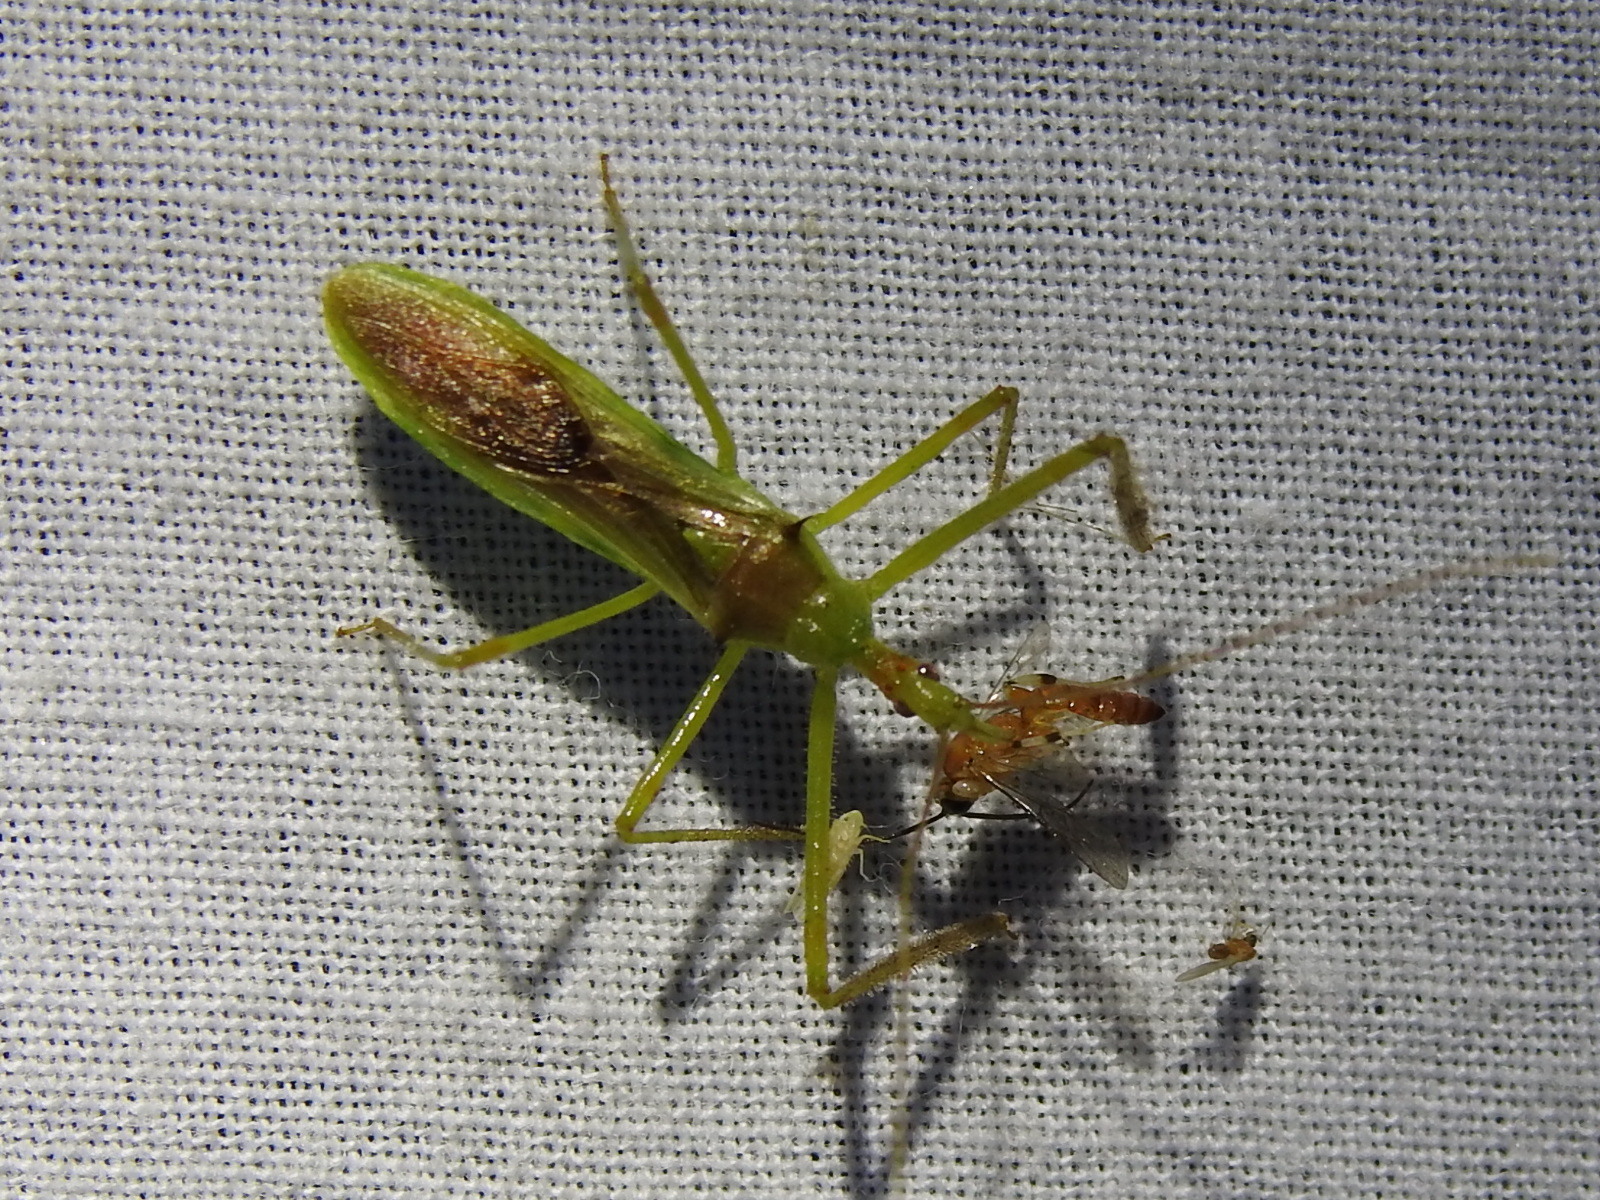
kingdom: Animalia
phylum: Arthropoda
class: Insecta
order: Hemiptera
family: Reduviidae
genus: Zelus
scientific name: Zelus luridus
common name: Pale green assassin bug
